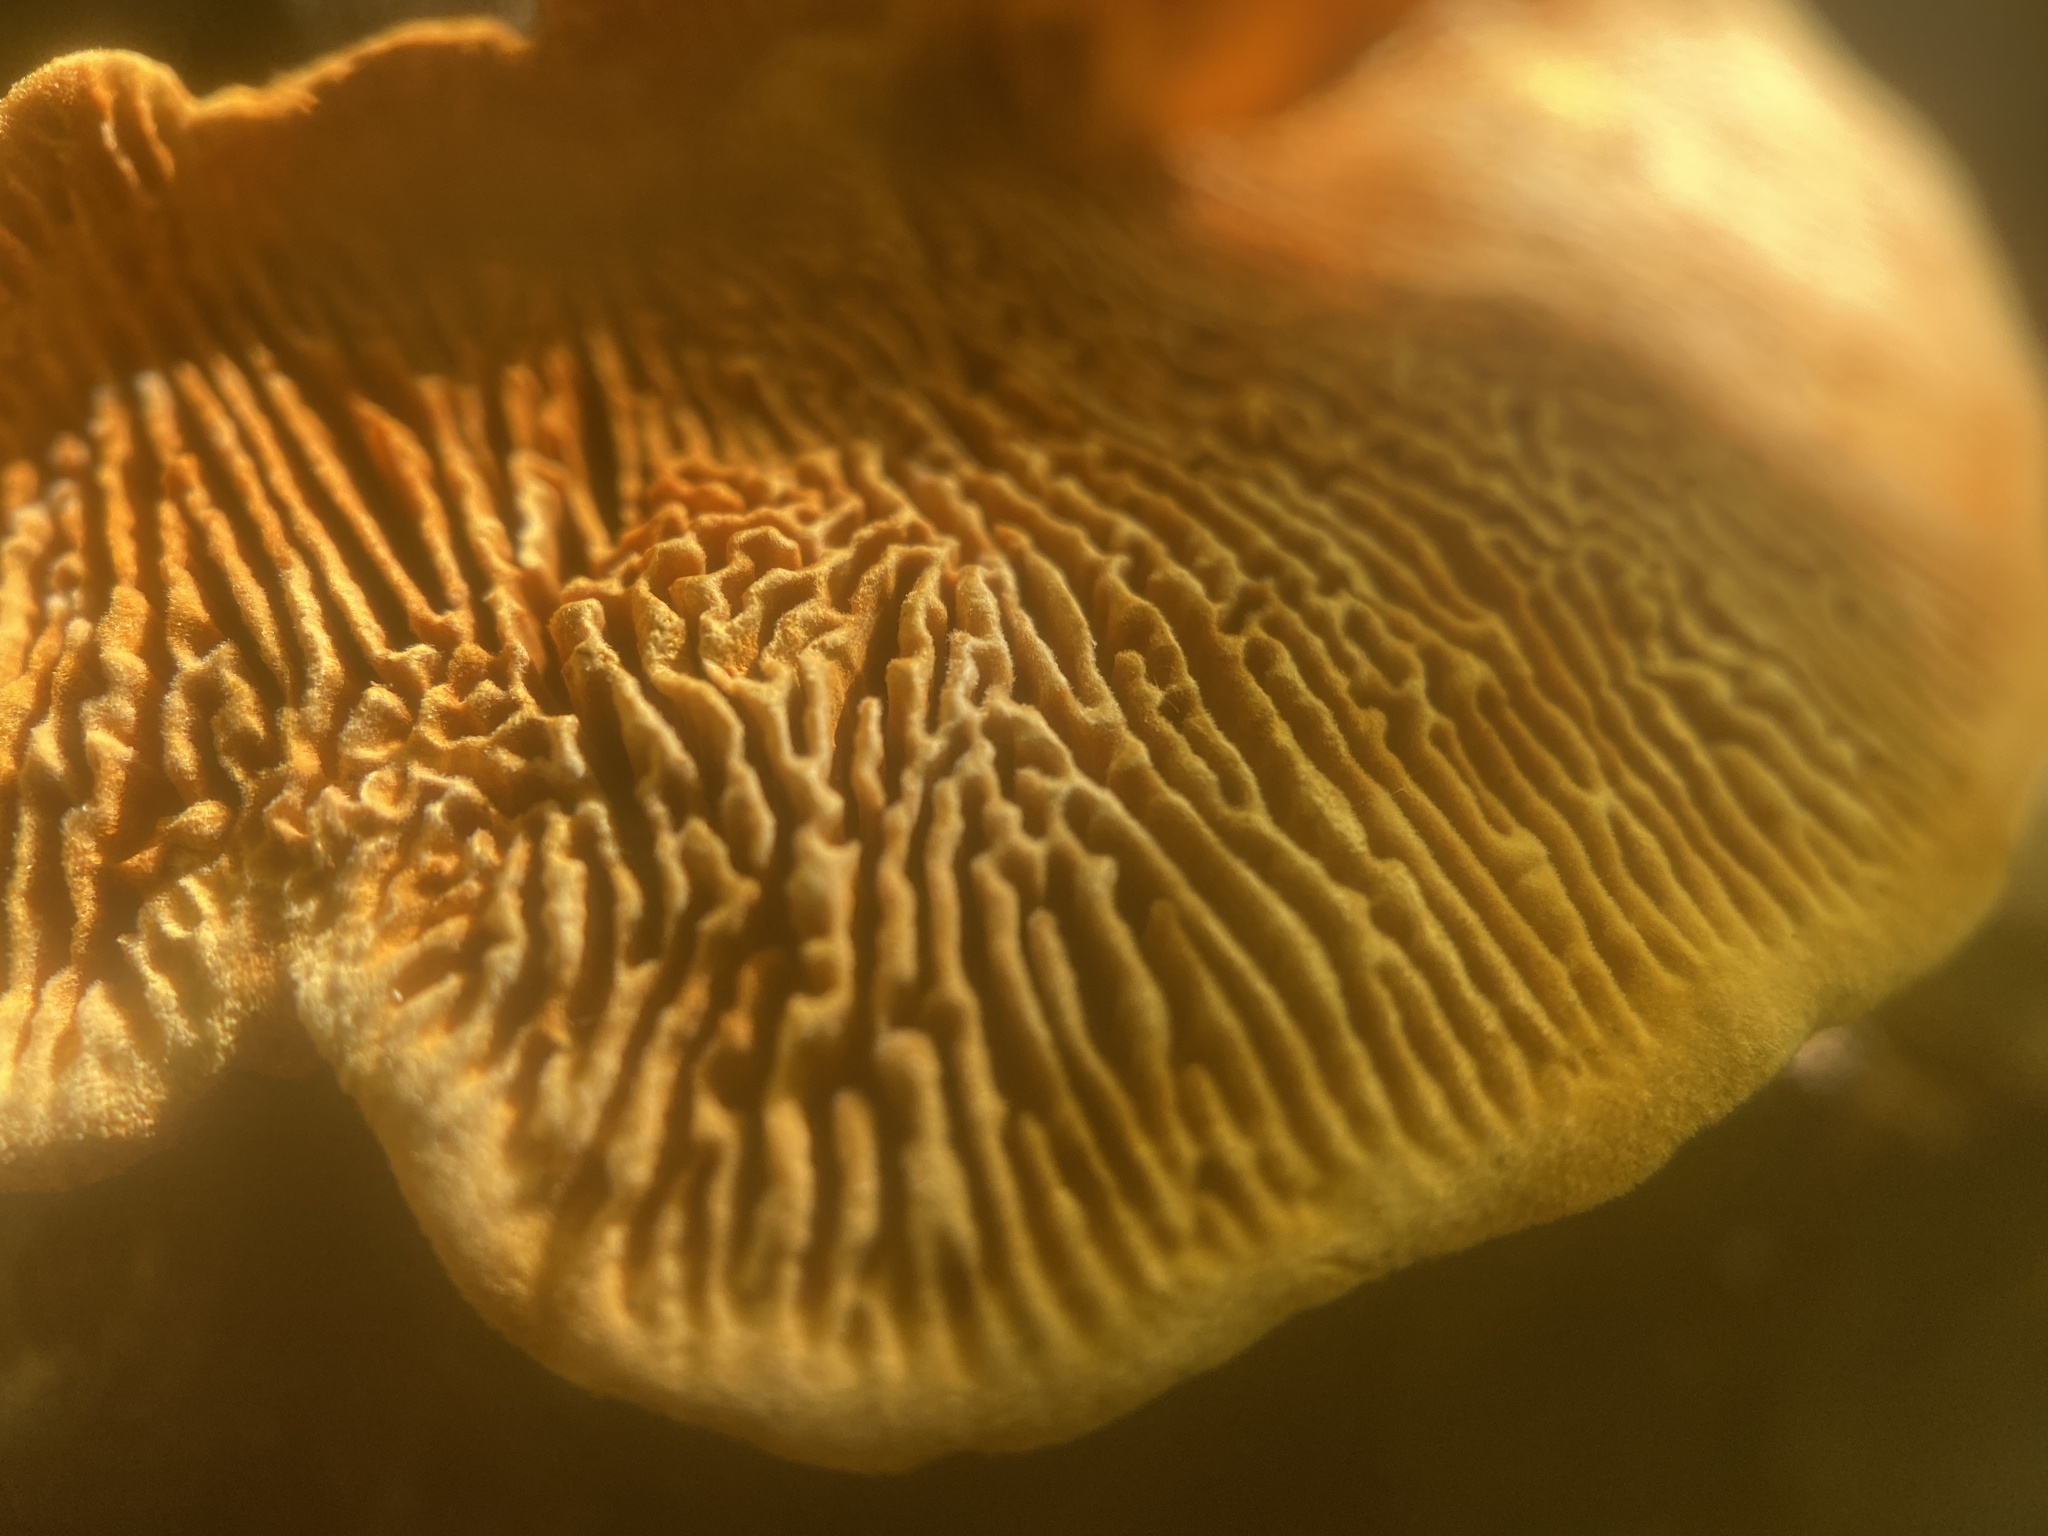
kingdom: Fungi
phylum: Basidiomycota
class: Agaricomycetes
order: Gloeophyllales
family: Gloeophyllaceae
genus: Gloeophyllum
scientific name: Gloeophyllum sepiarium
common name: Conifer mazegill
